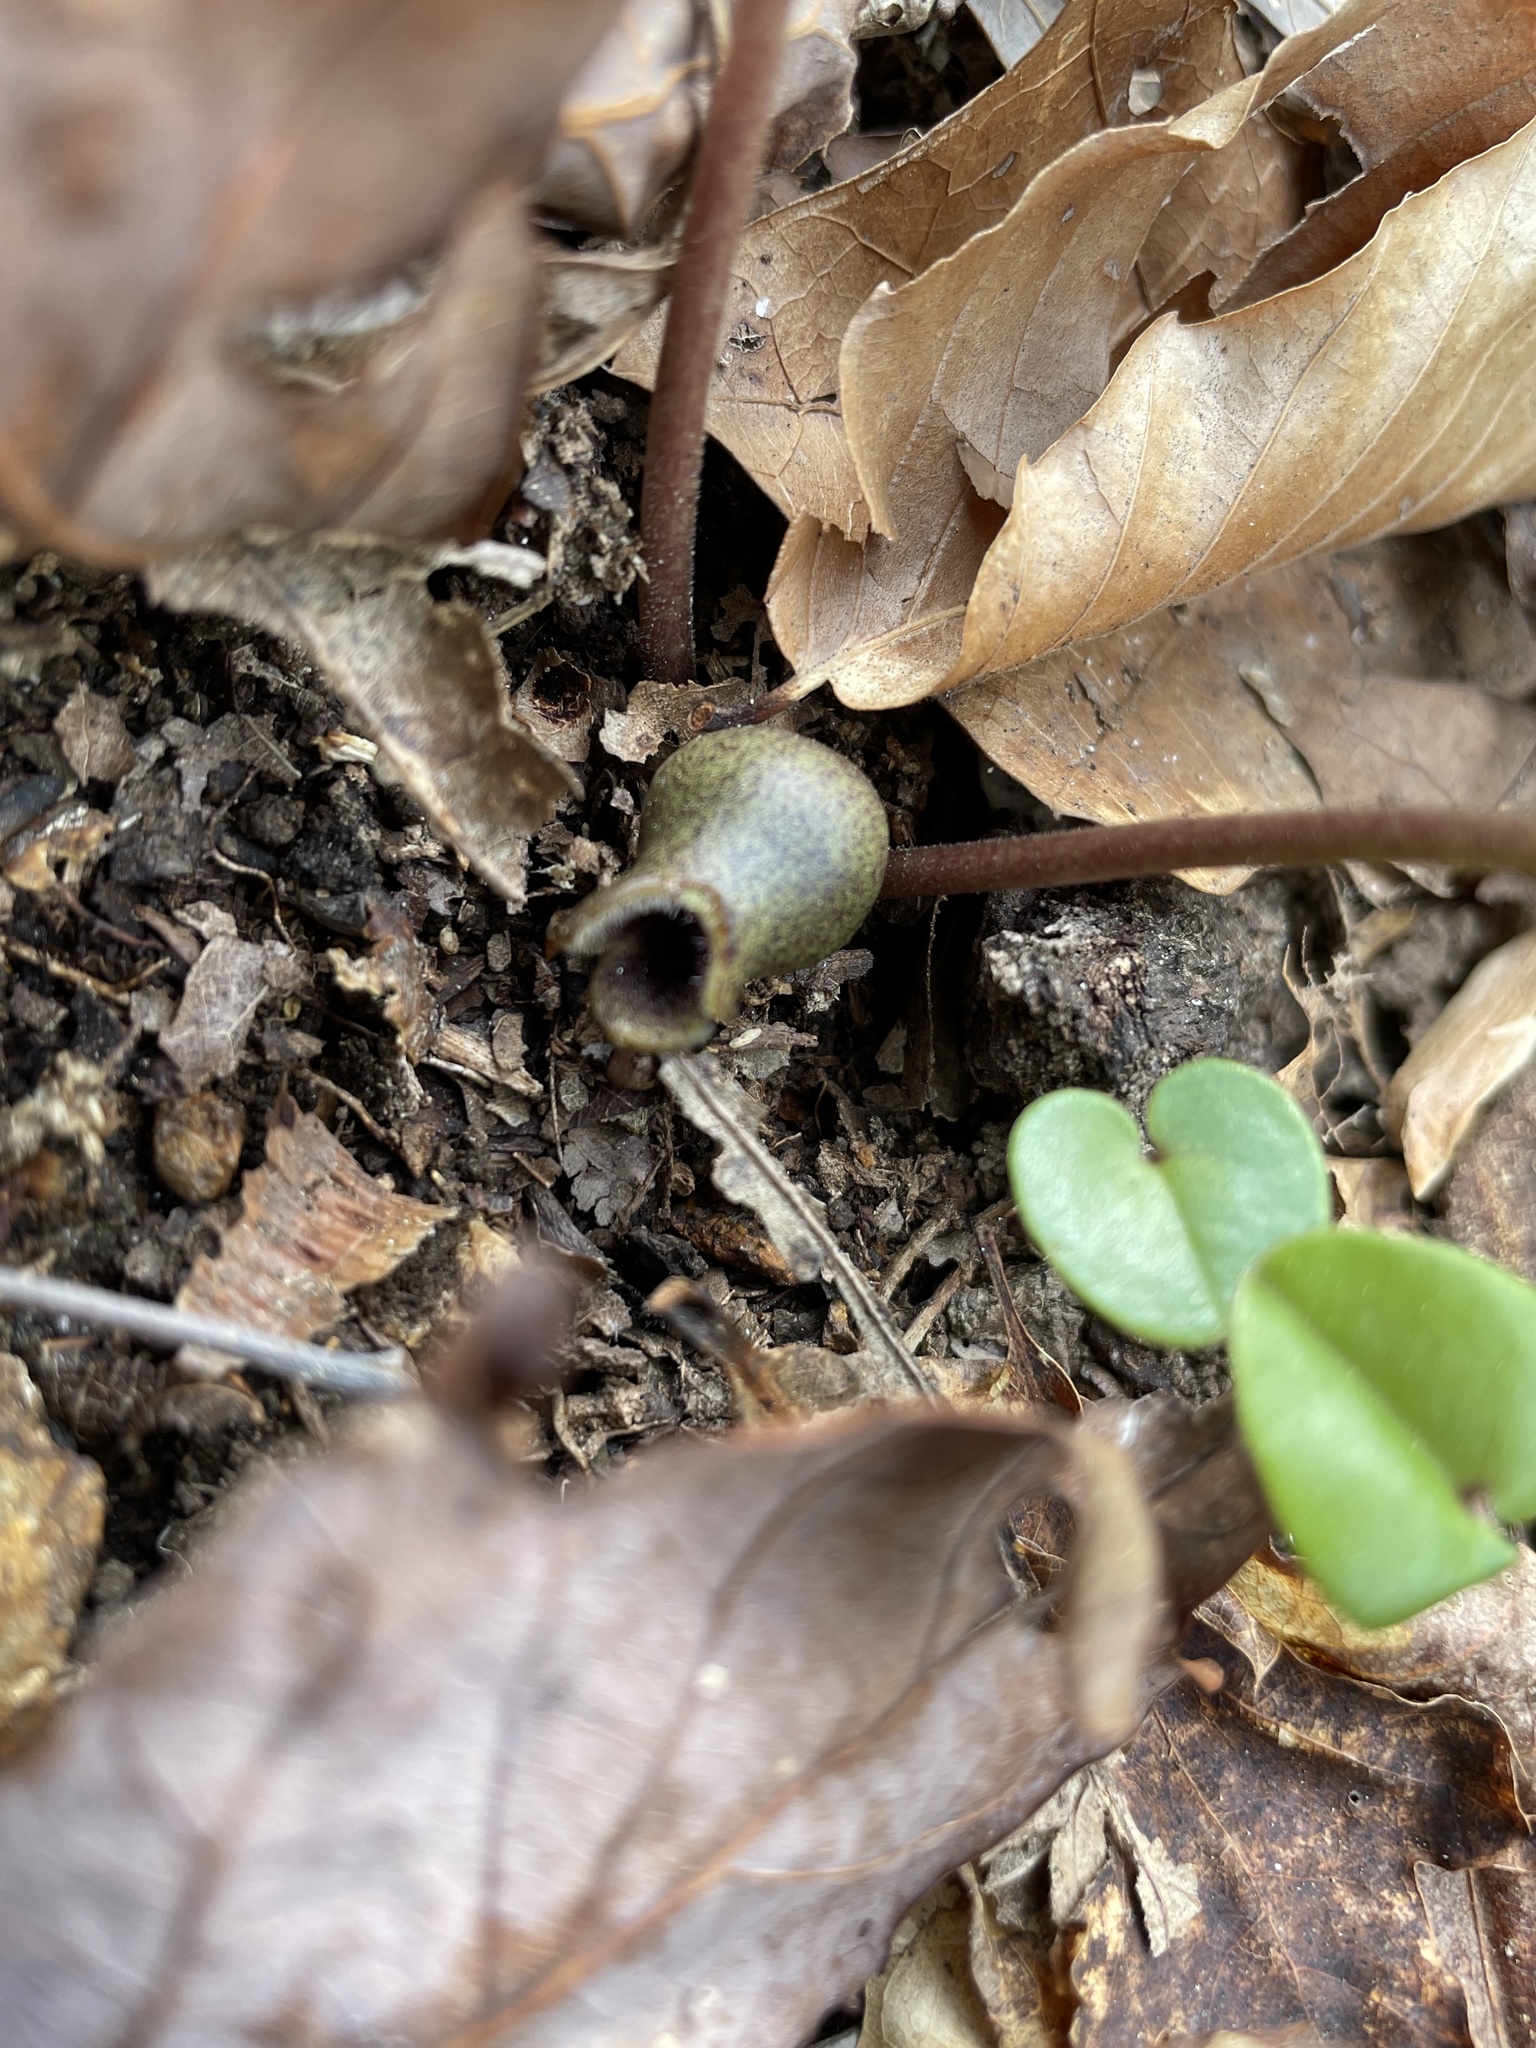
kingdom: Plantae
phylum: Tracheophyta
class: Magnoliopsida
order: Piperales
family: Aristolochiaceae
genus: Hexastylis
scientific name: Hexastylis arifolia
